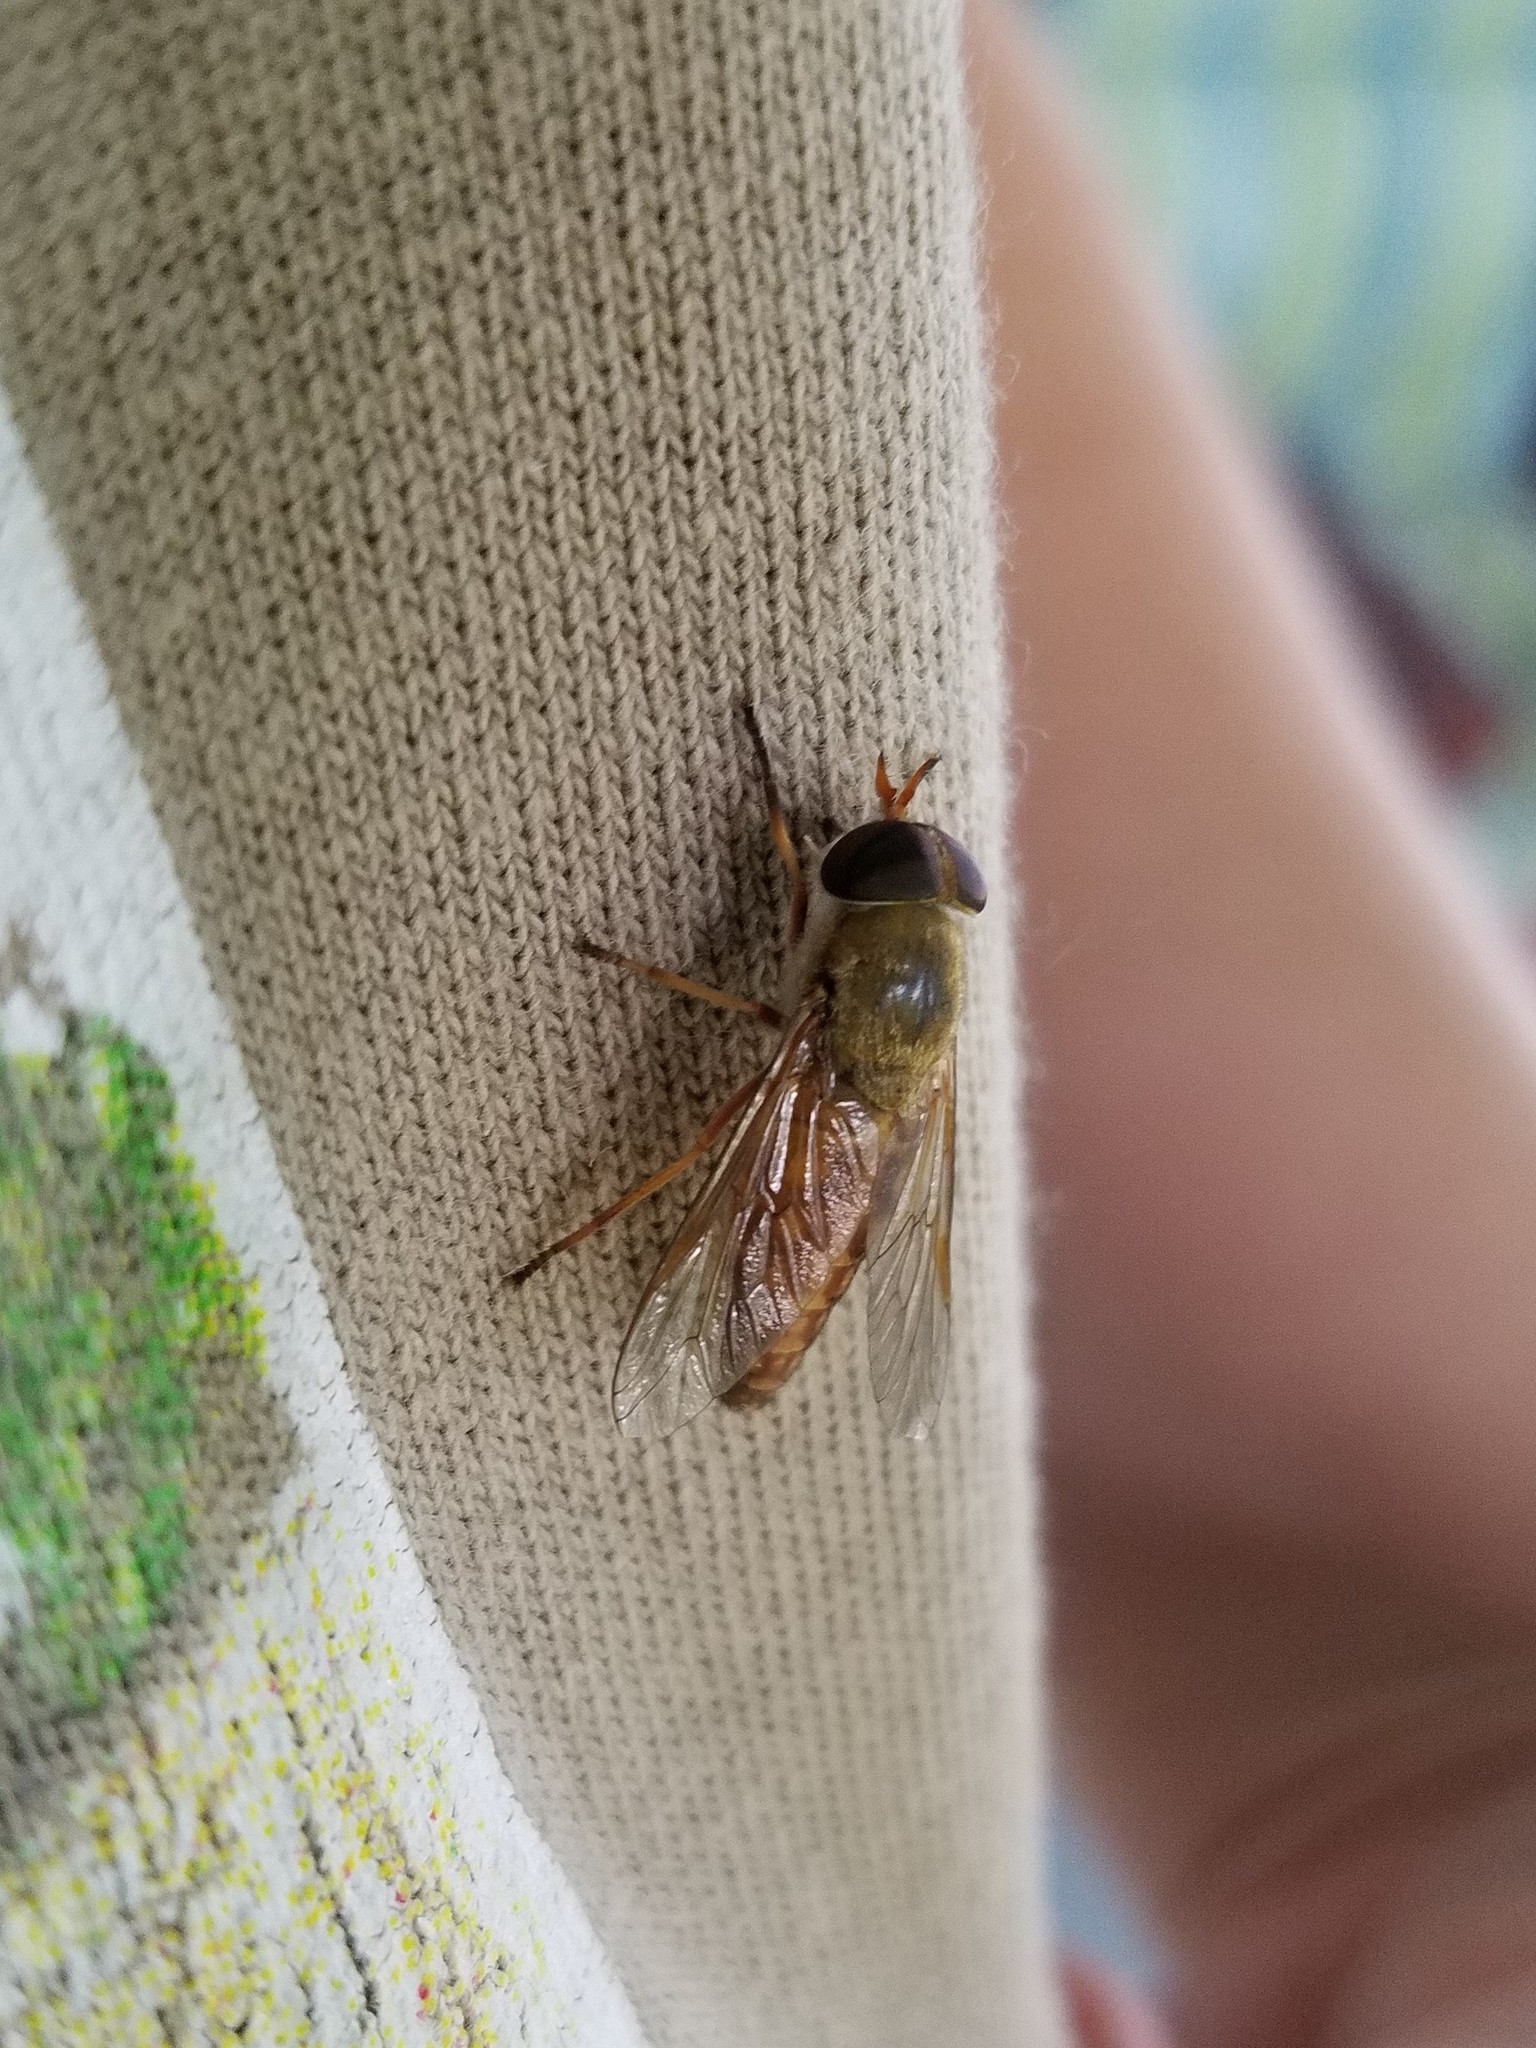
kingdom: Animalia
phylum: Arthropoda
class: Insecta
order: Diptera
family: Tabanidae
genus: Tabanus
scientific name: Tabanus sackeni
